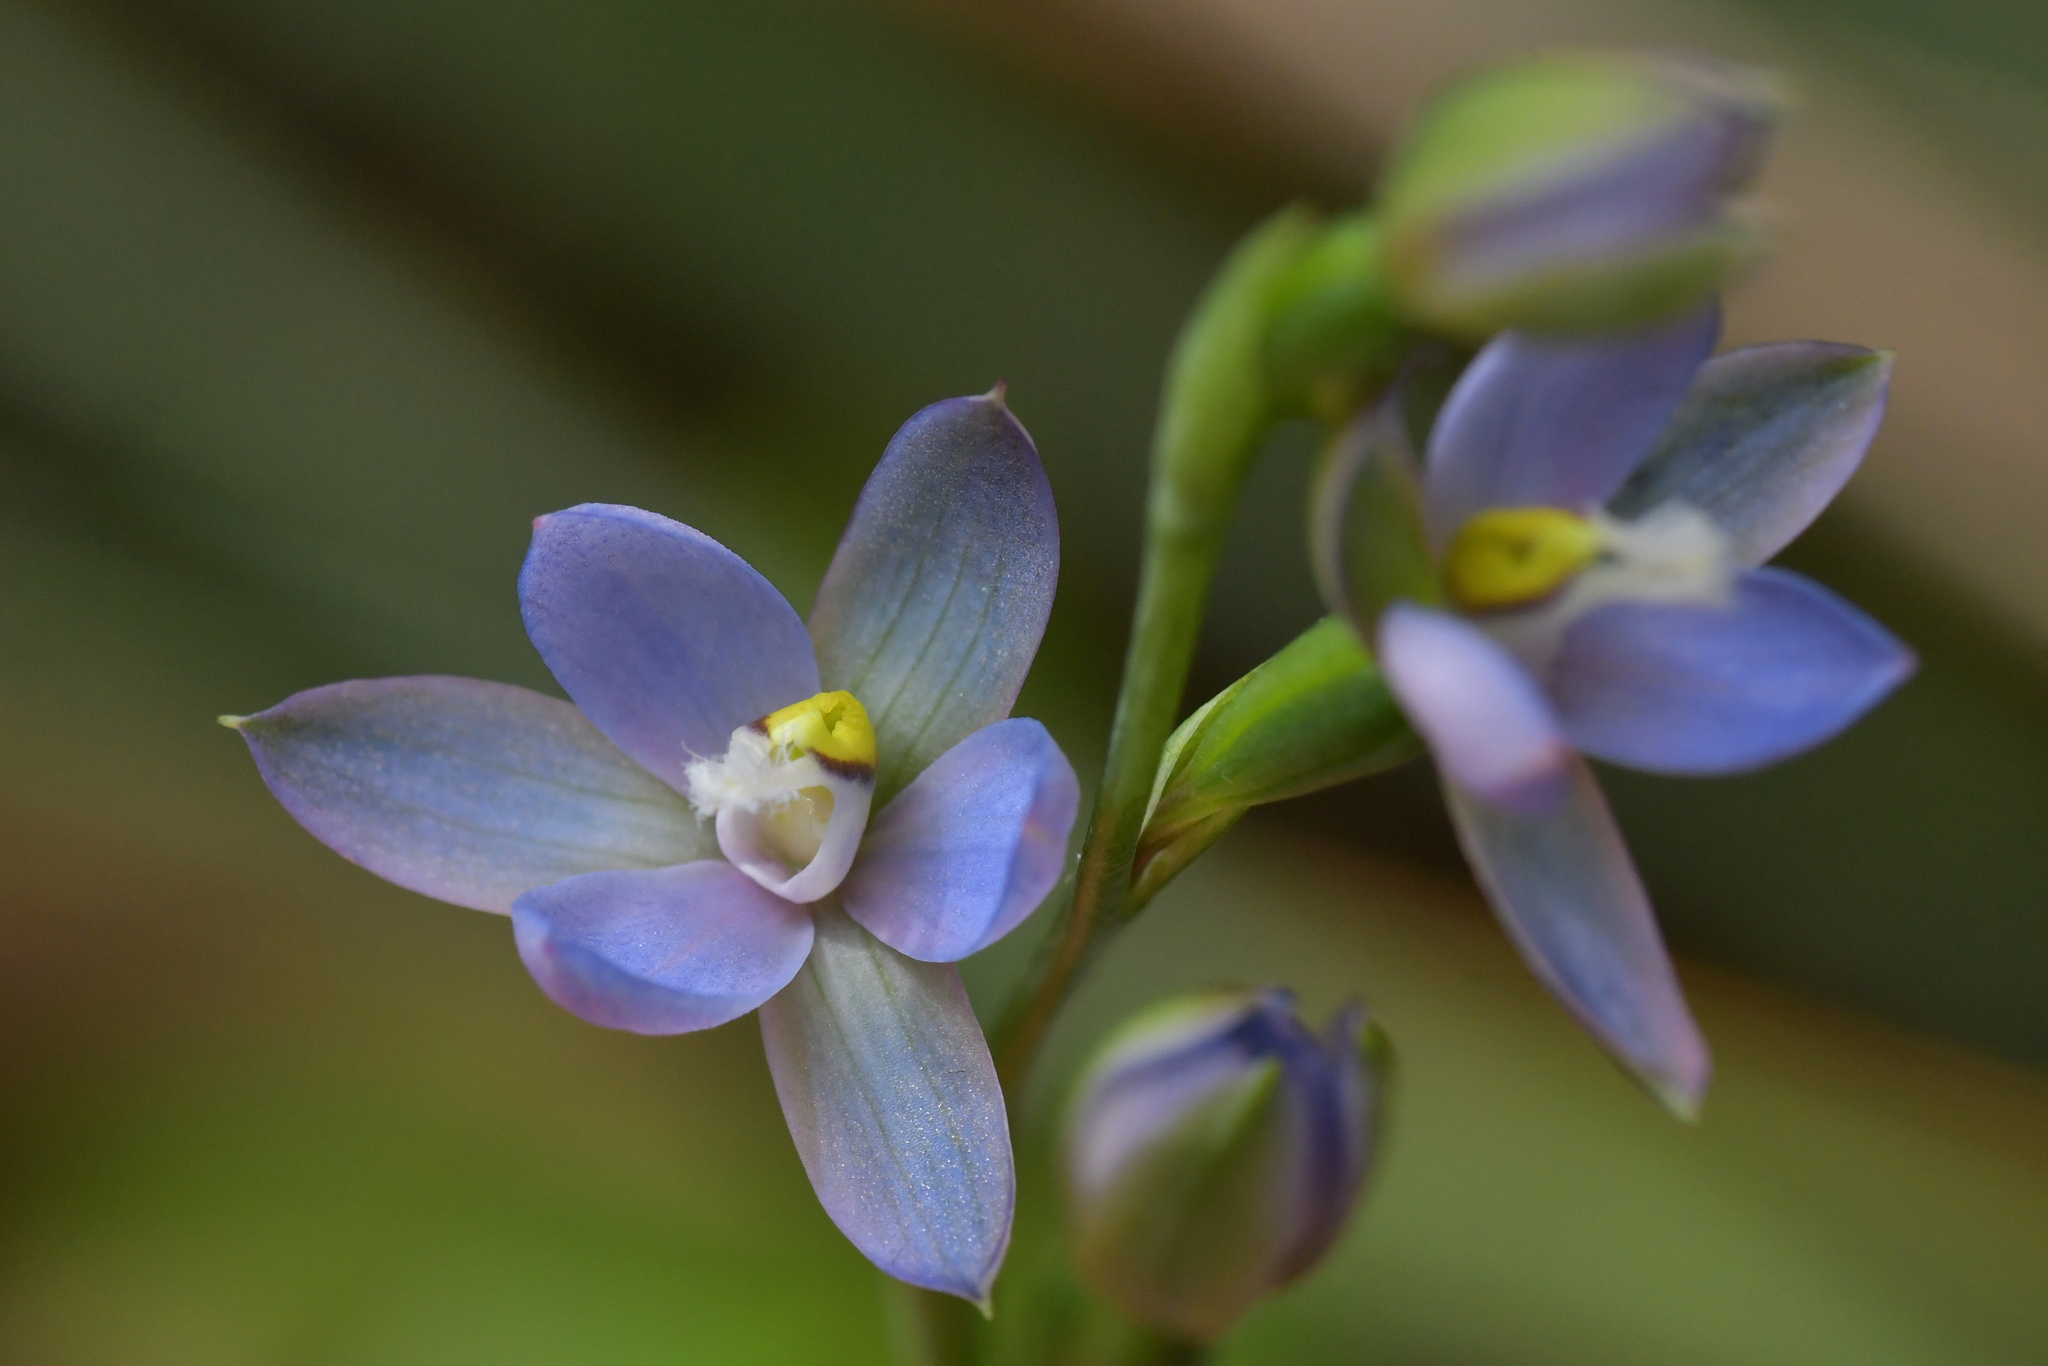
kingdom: Plantae
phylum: Tracheophyta
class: Liliopsida
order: Asparagales
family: Orchidaceae
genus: Thelymitra
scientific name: Thelymitra aemula
